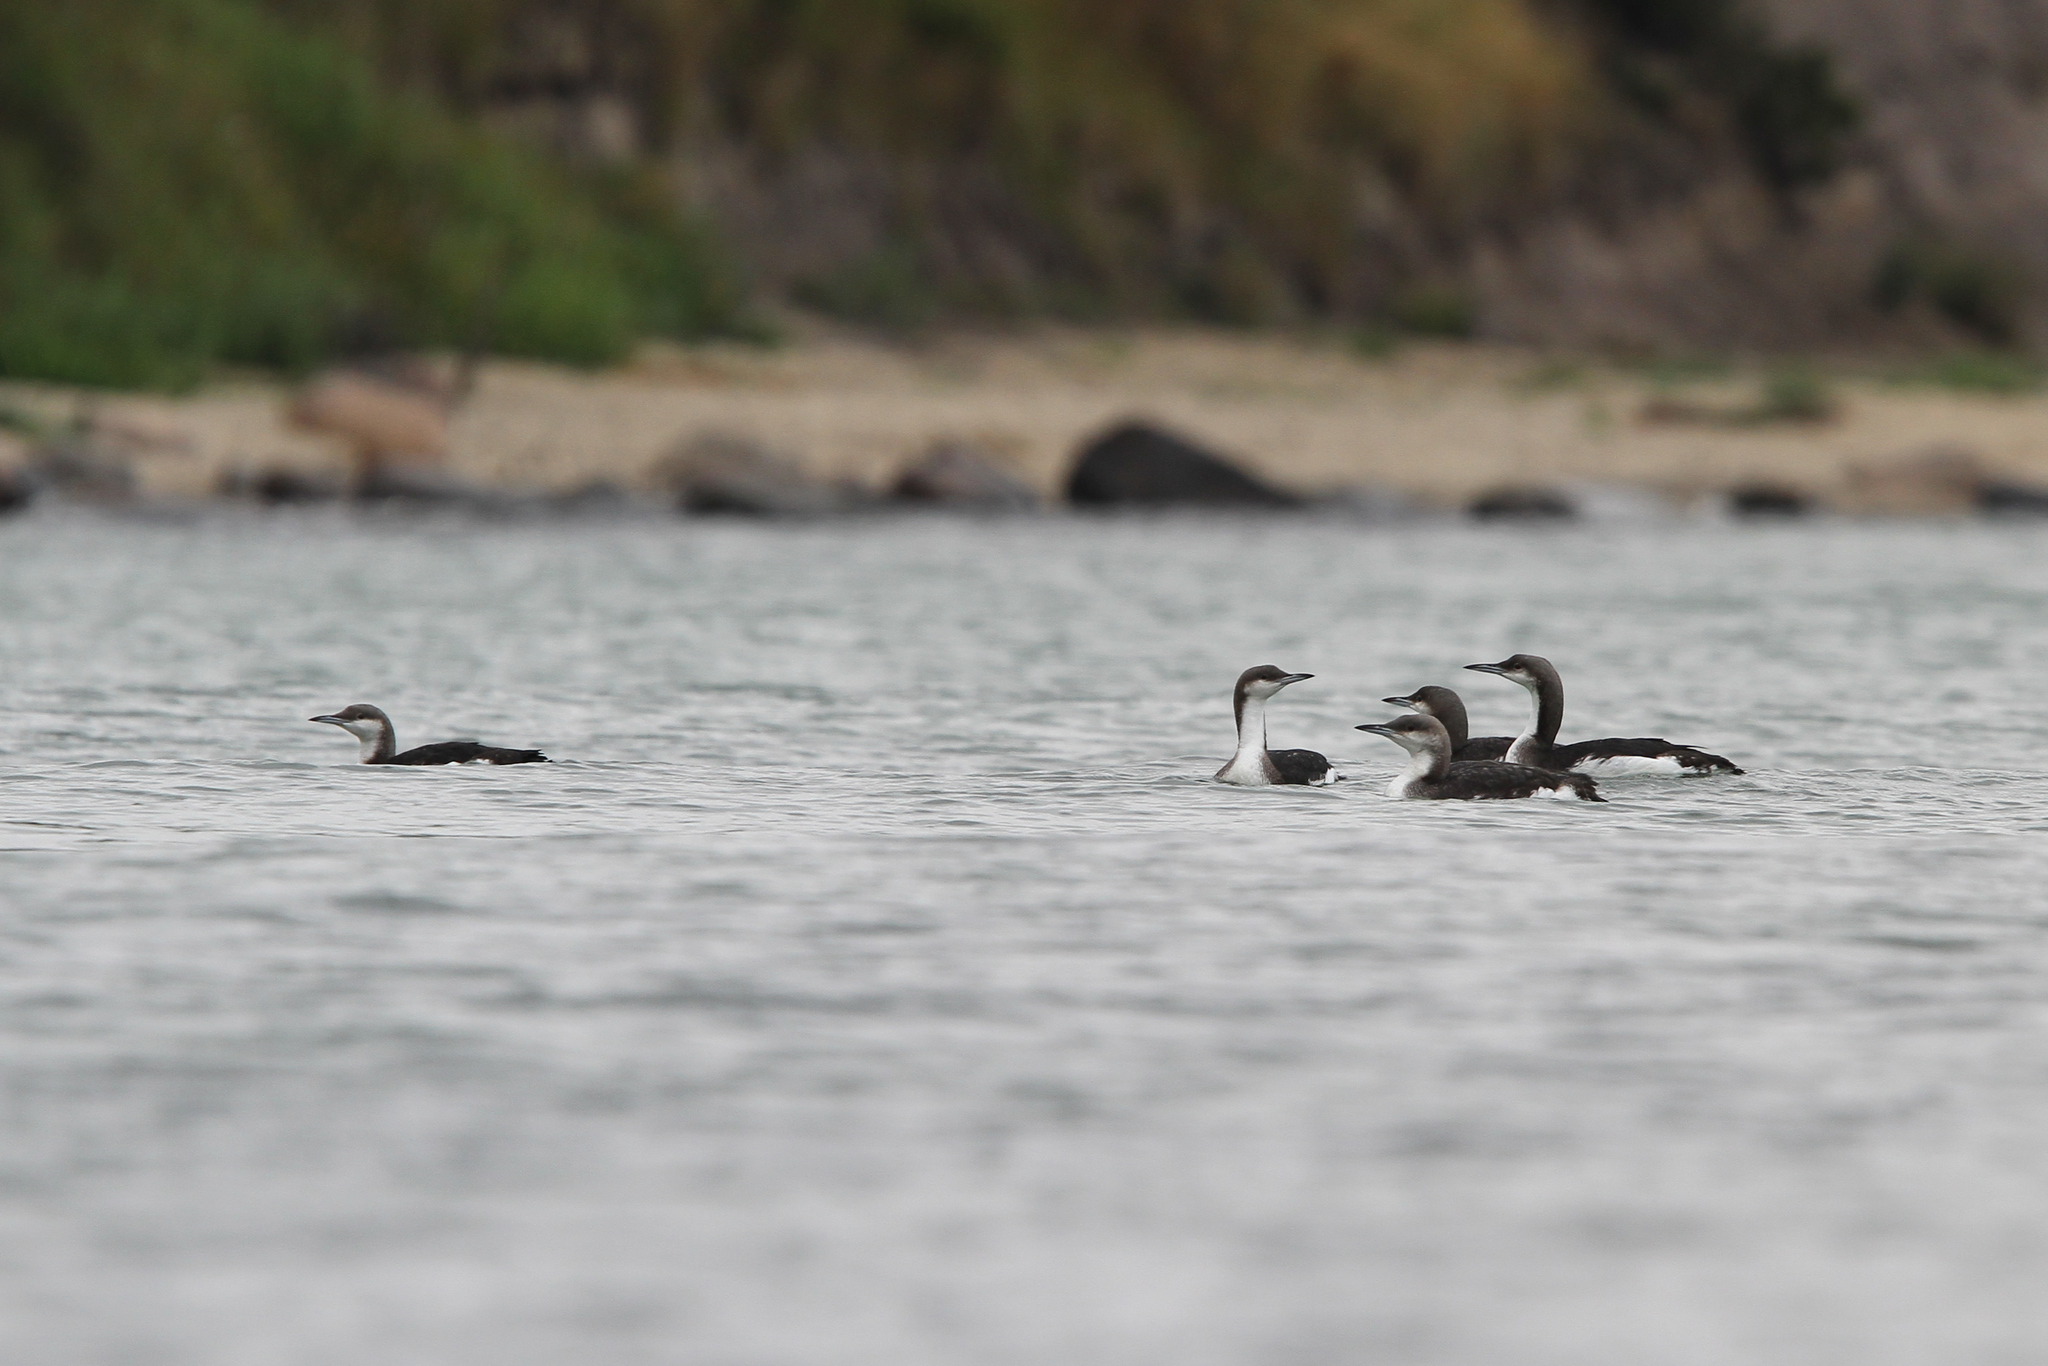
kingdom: Animalia
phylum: Chordata
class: Aves
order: Gaviiformes
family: Gaviidae
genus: Gavia
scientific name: Gavia arctica
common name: Black-throated loon
